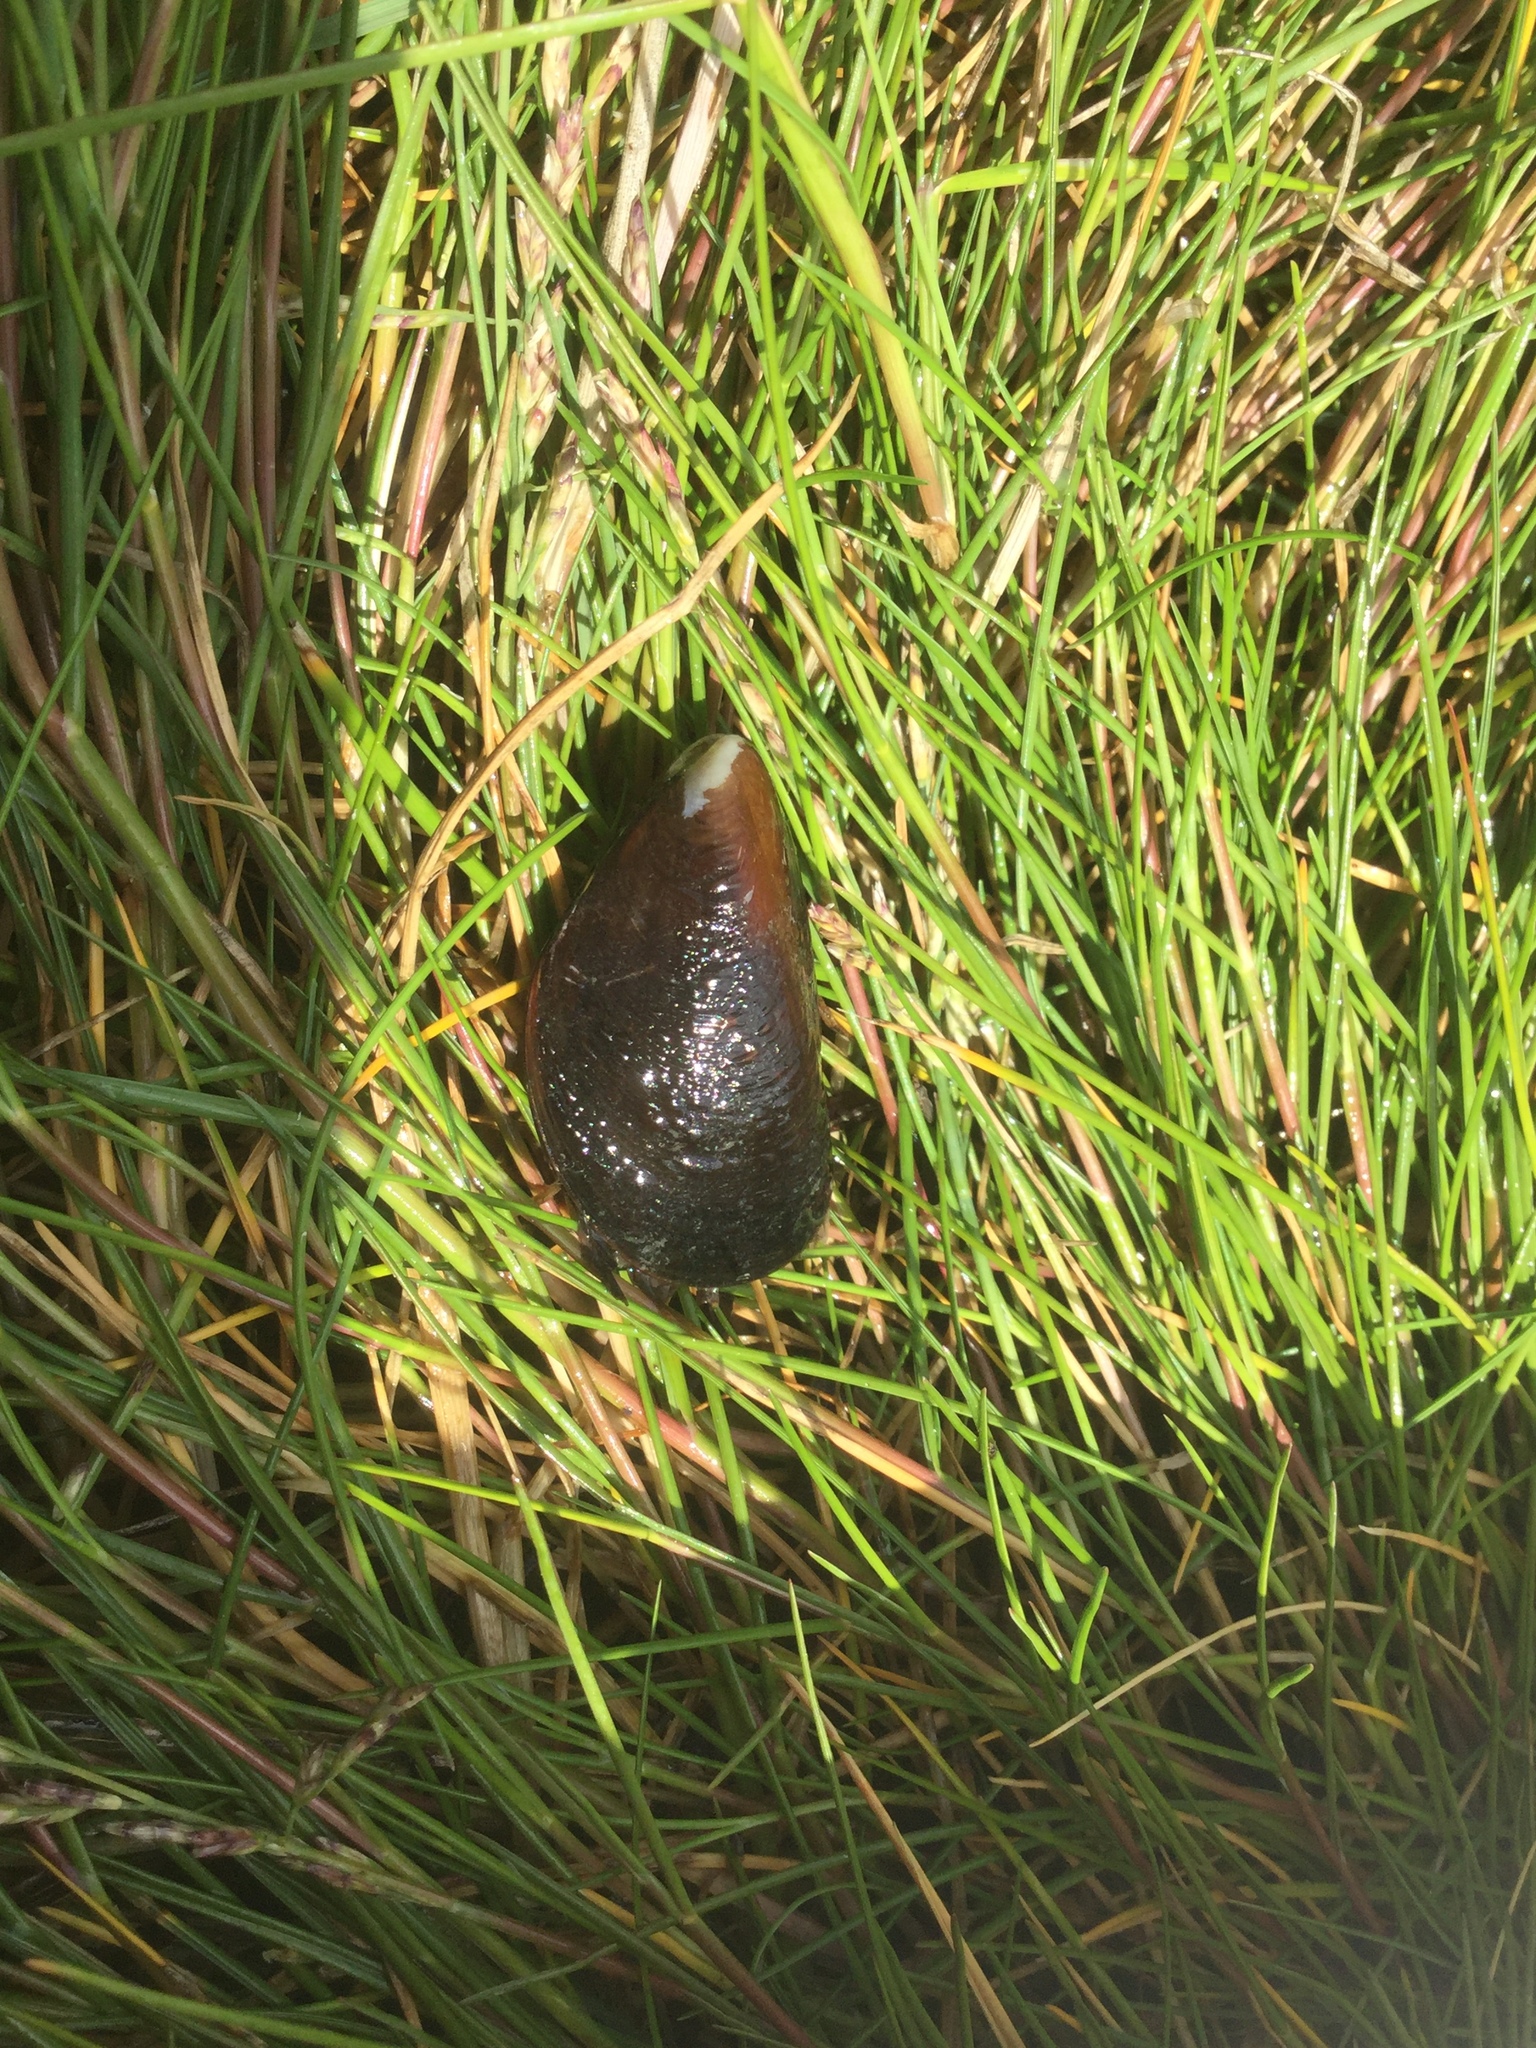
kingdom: Animalia
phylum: Mollusca
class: Bivalvia
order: Mytilida
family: Mytilidae
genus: Mytilus
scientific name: Mytilus edulis
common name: Blue mussel
